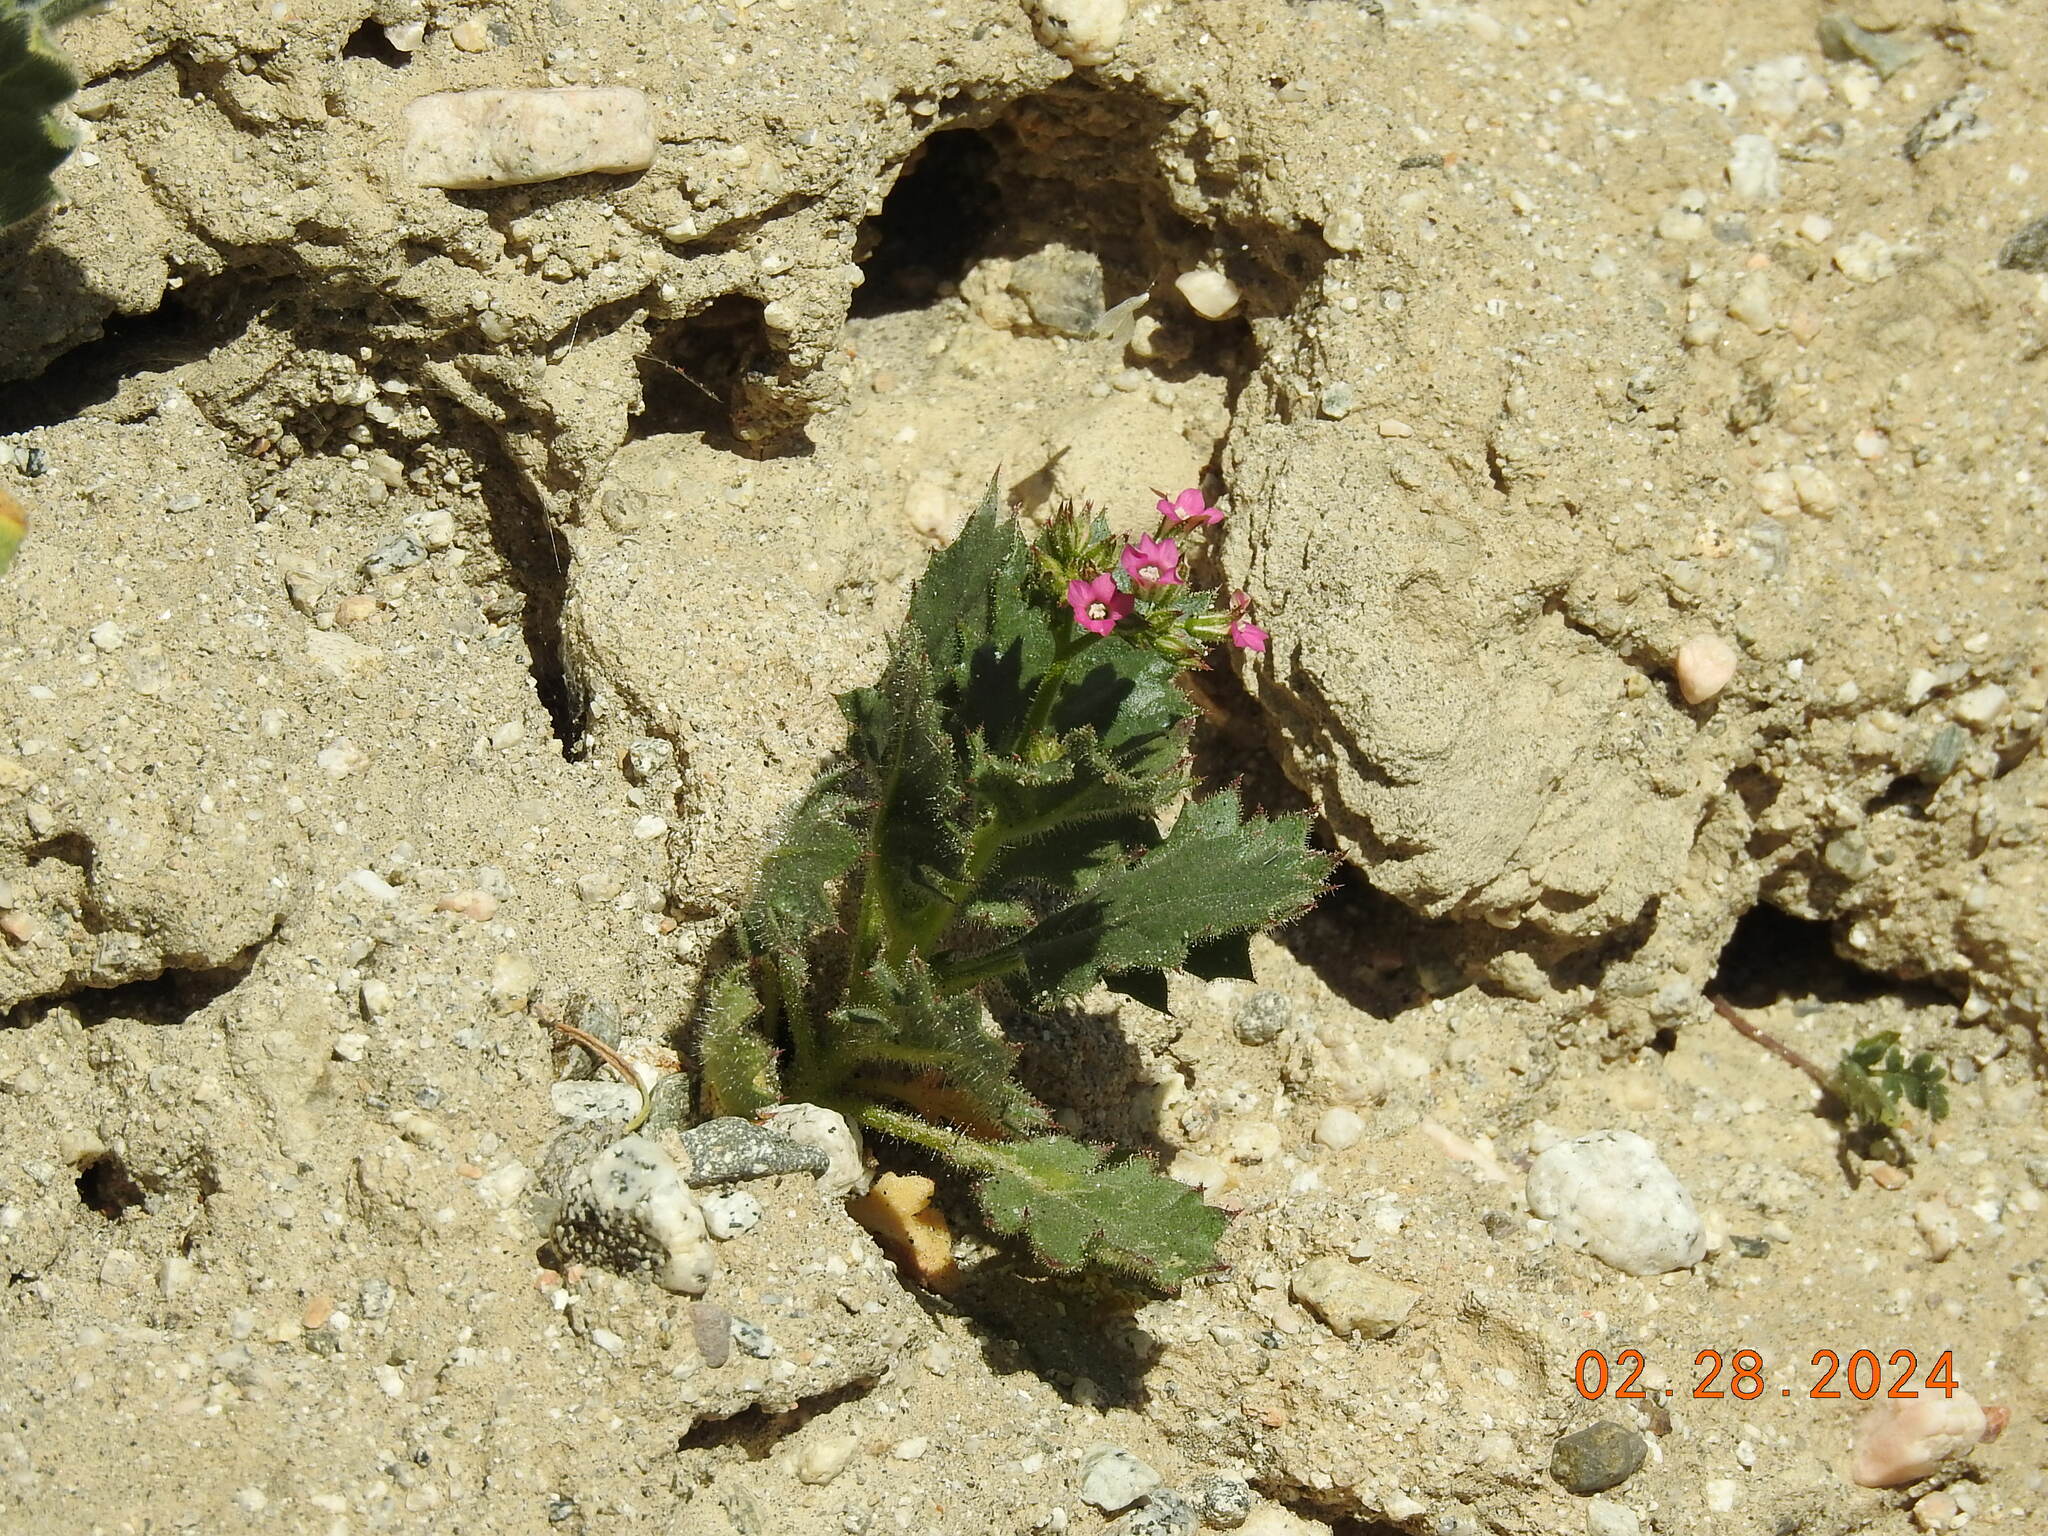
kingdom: Plantae
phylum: Tracheophyta
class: Magnoliopsida
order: Ericales
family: Polemoniaceae
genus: Aliciella
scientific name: Aliciella latifolia
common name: Broad-leaf gilia
